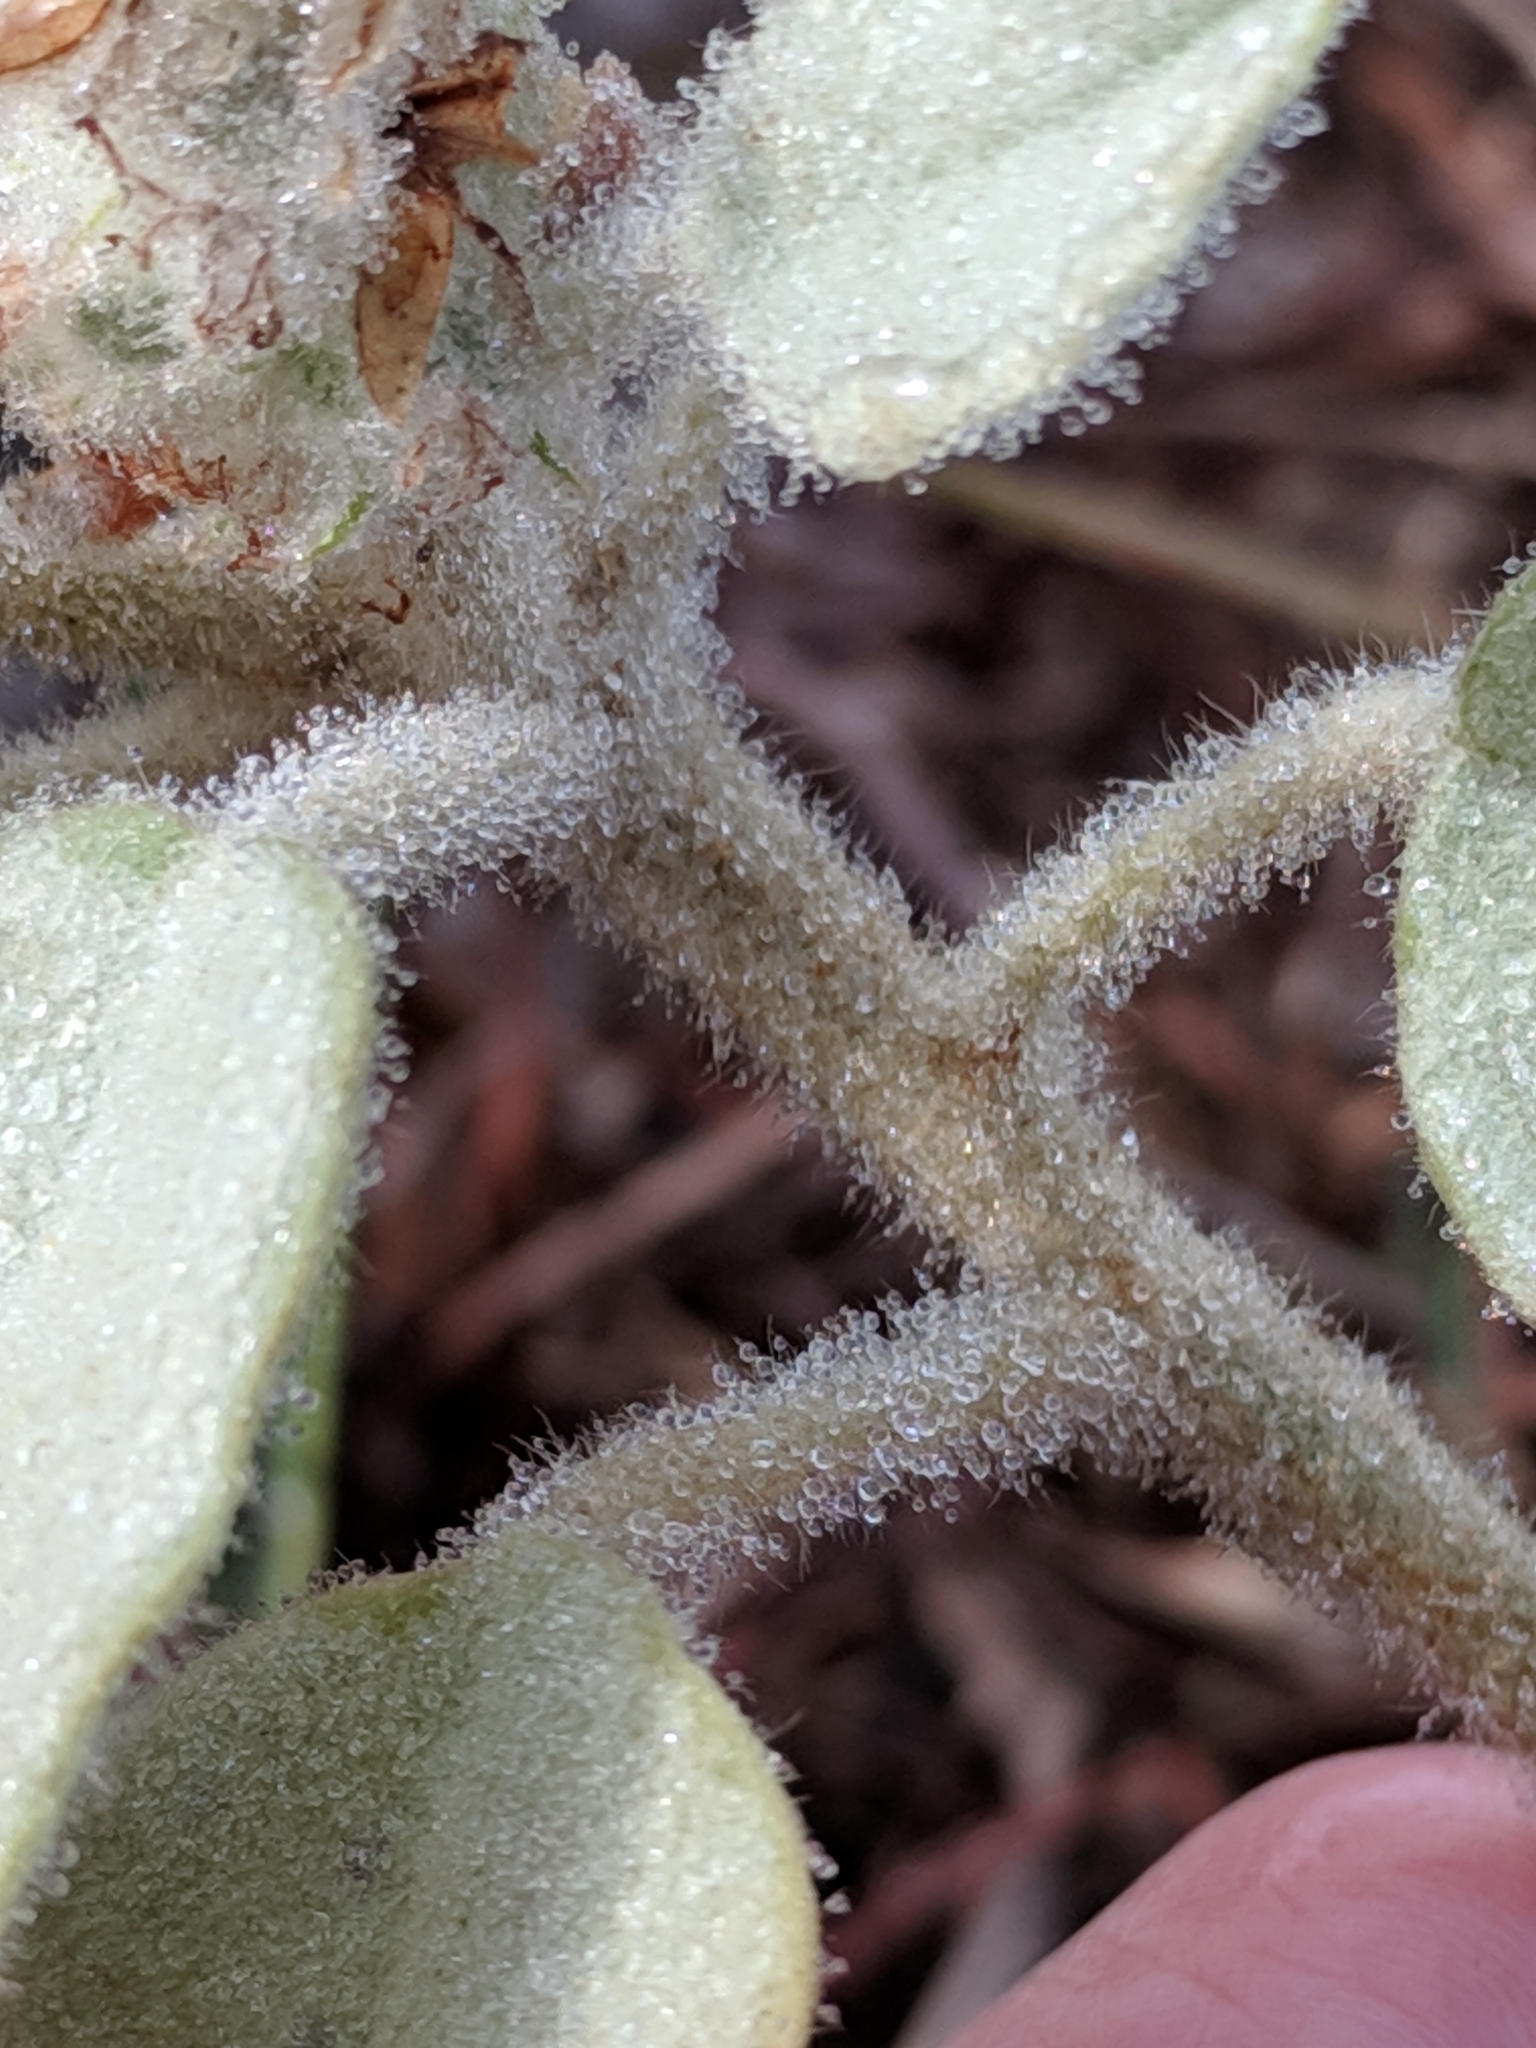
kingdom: Plantae
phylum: Tracheophyta
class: Magnoliopsida
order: Malpighiales
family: Euphorbiaceae
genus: Croton
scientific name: Croton coryi
